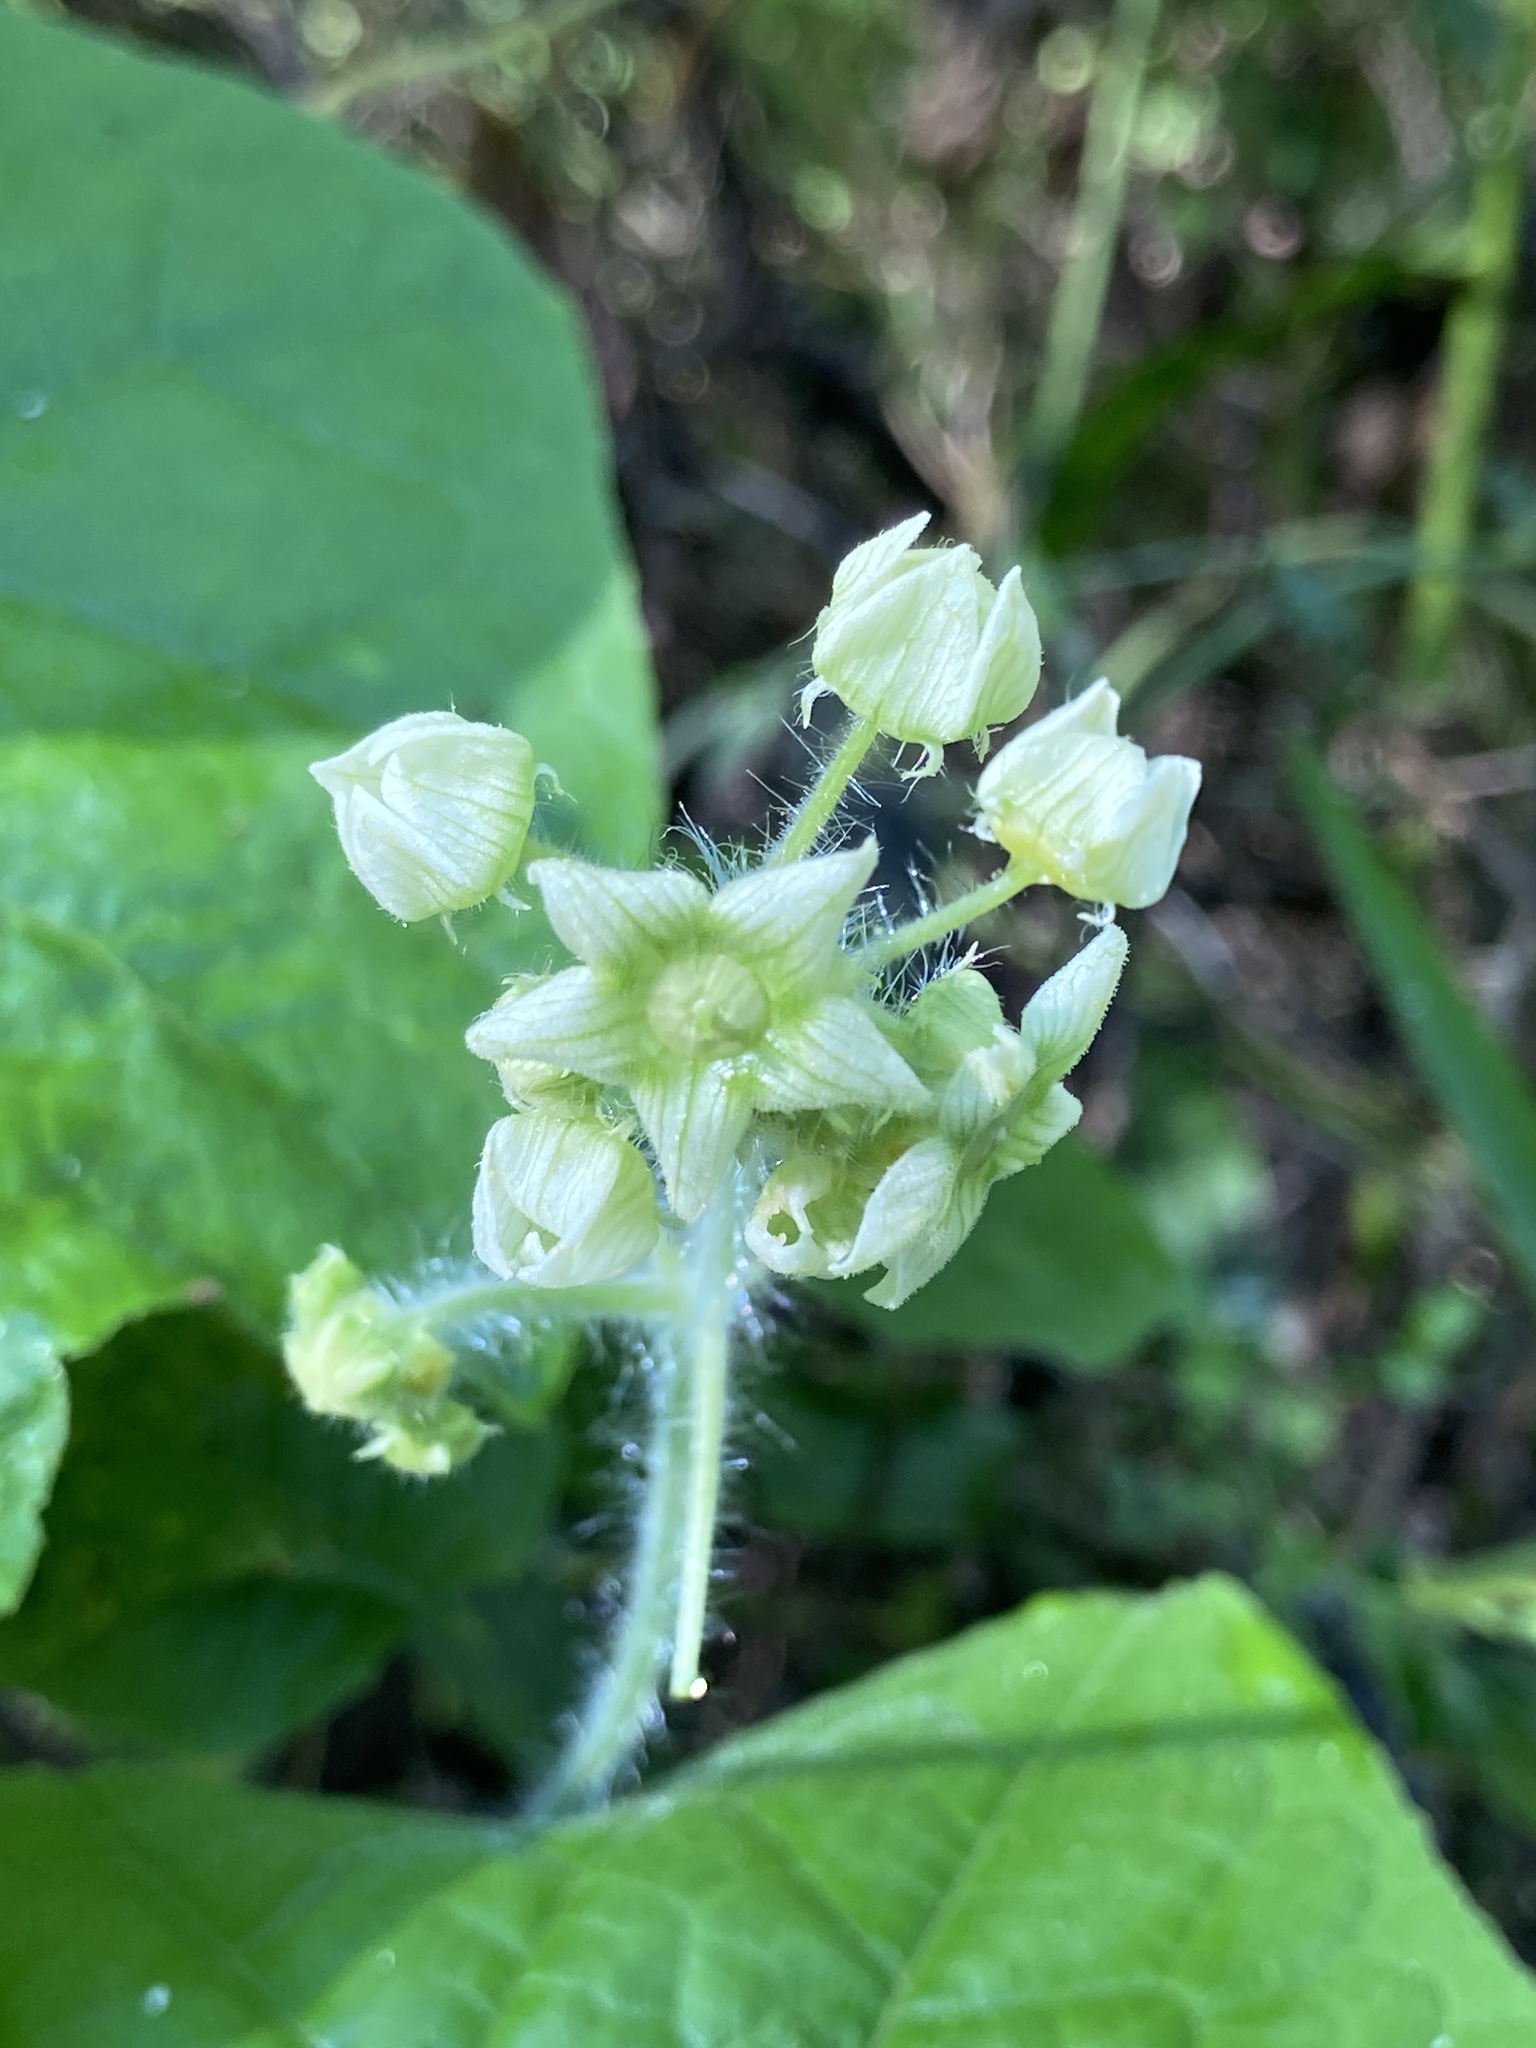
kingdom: Plantae
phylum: Tracheophyta
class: Magnoliopsida
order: Cucurbitales
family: Cucurbitaceae
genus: Sicyos
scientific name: Sicyos angulatus
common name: Angled burr cucumber
